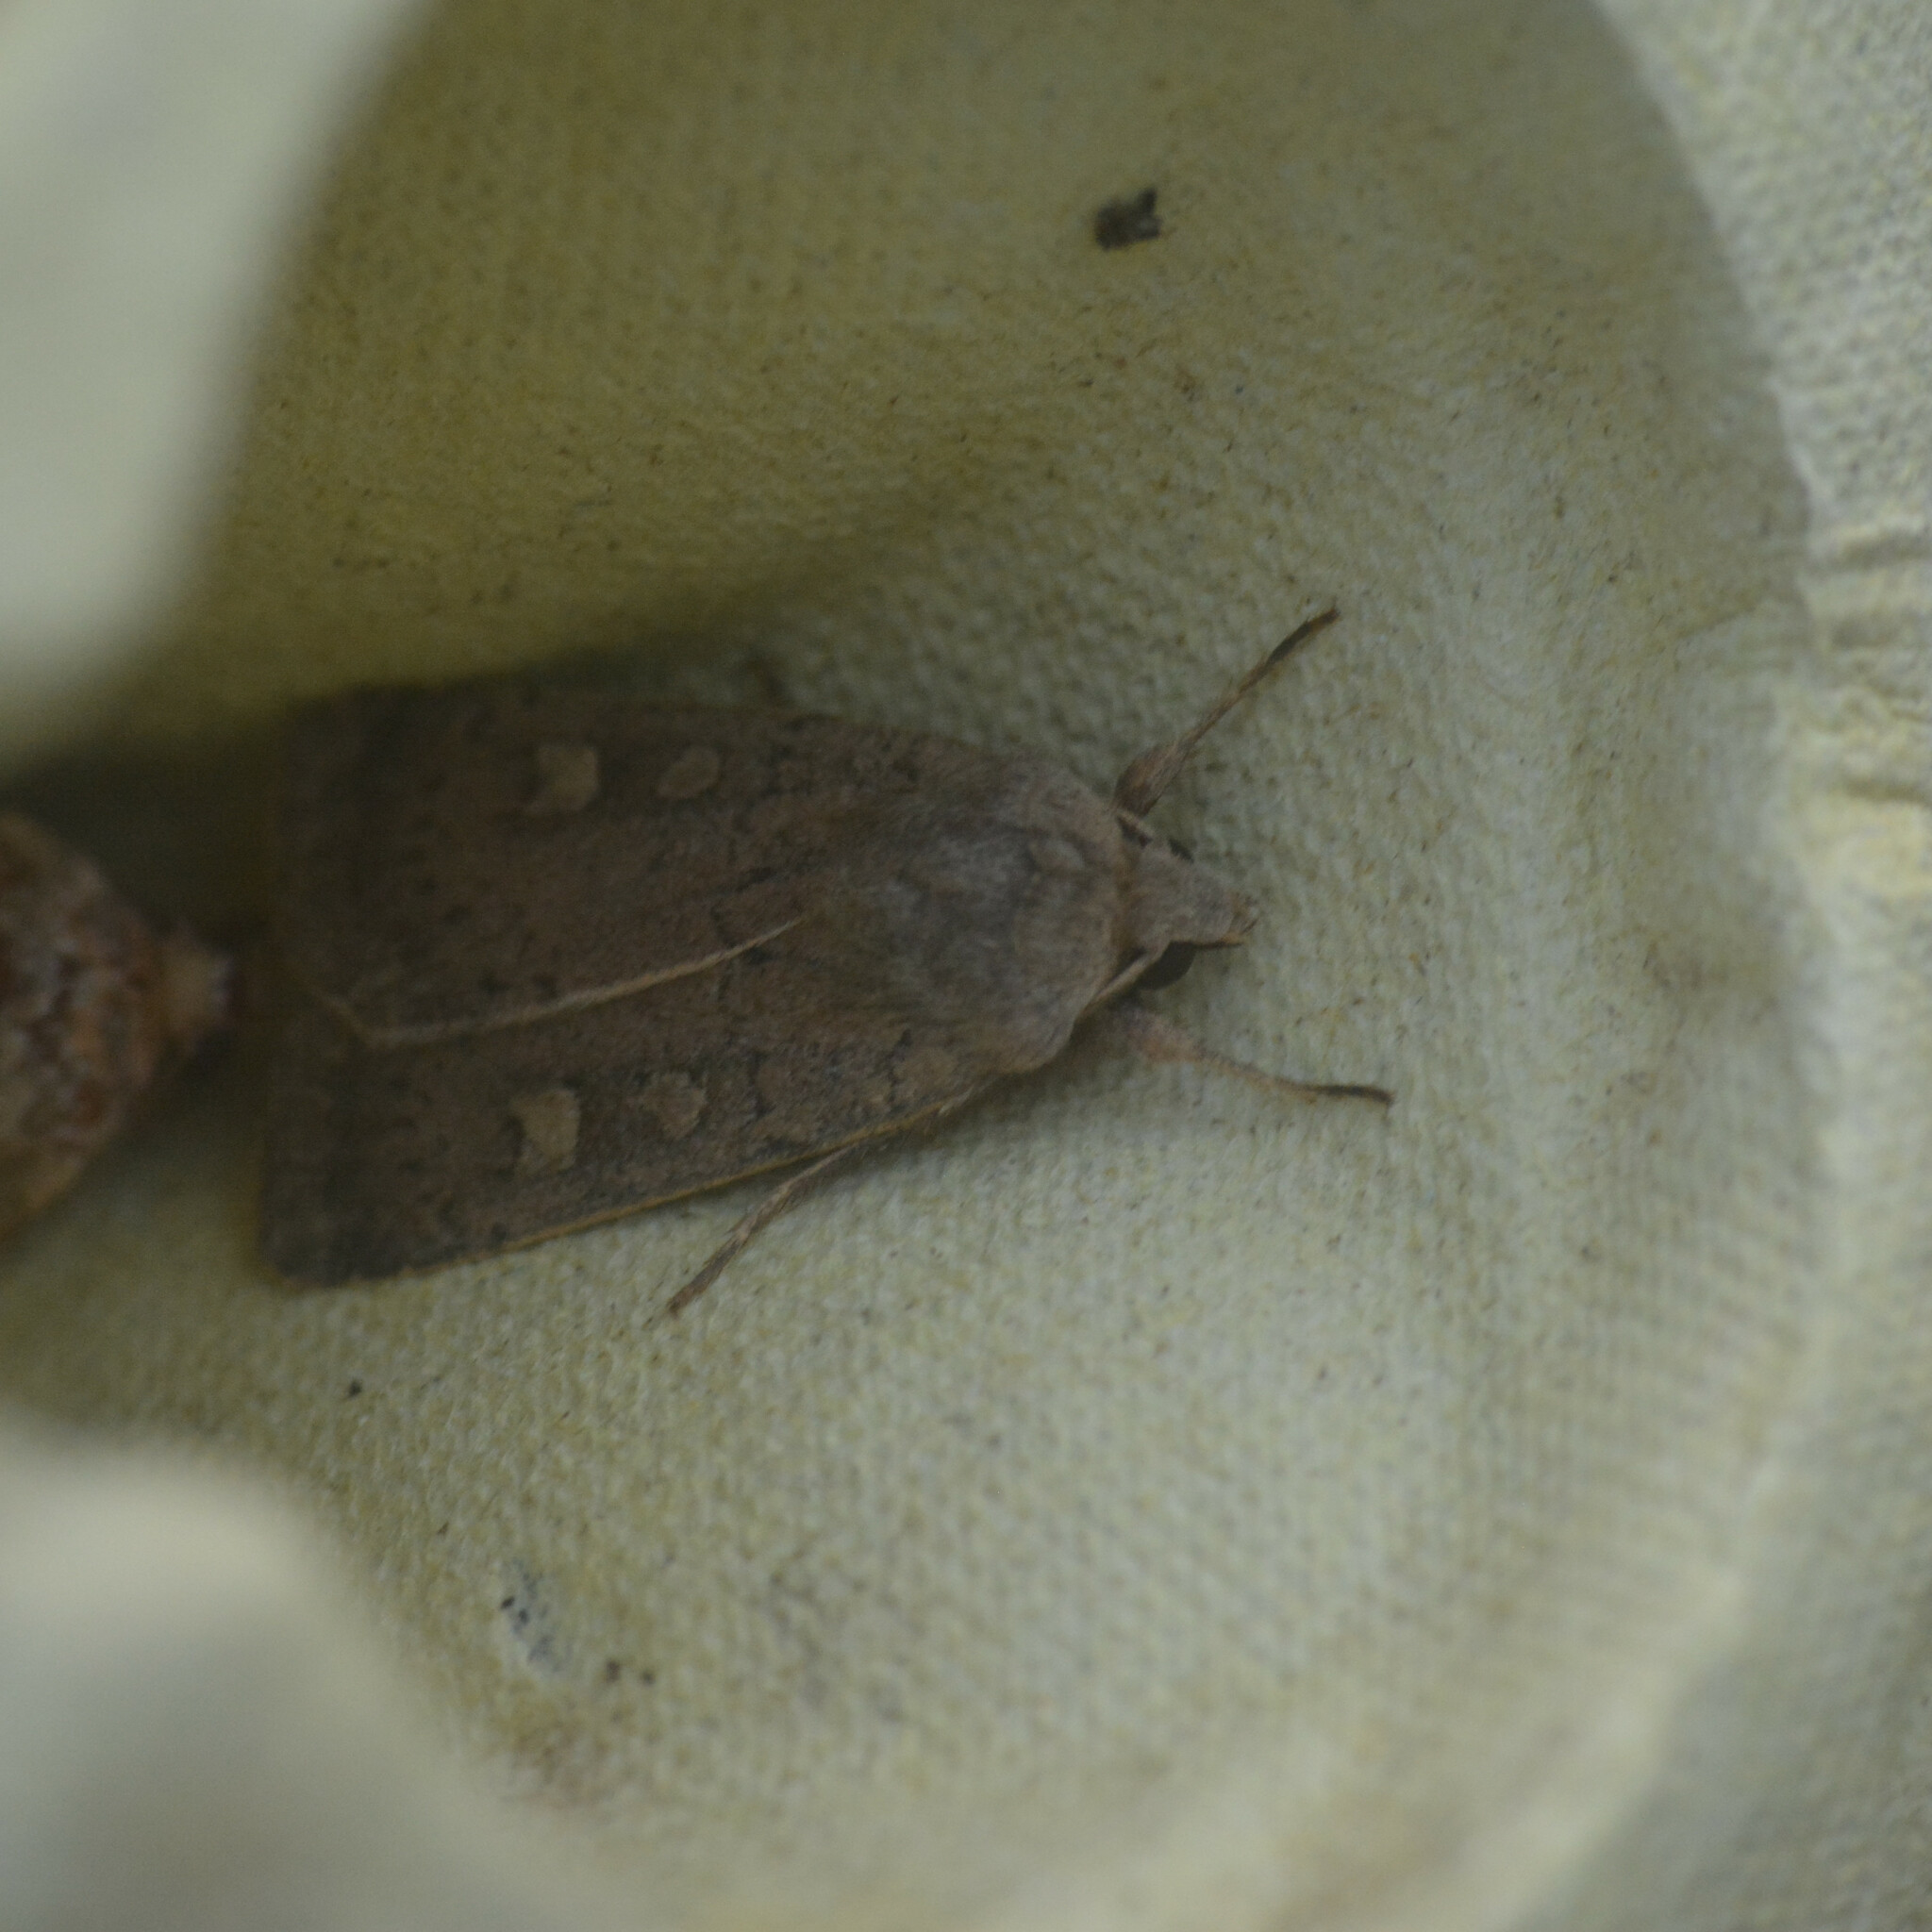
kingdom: Animalia
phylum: Arthropoda
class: Insecta
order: Lepidoptera
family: Noctuidae
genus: Xestia
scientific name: Xestia xanthographa
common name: Square-spot rustic
